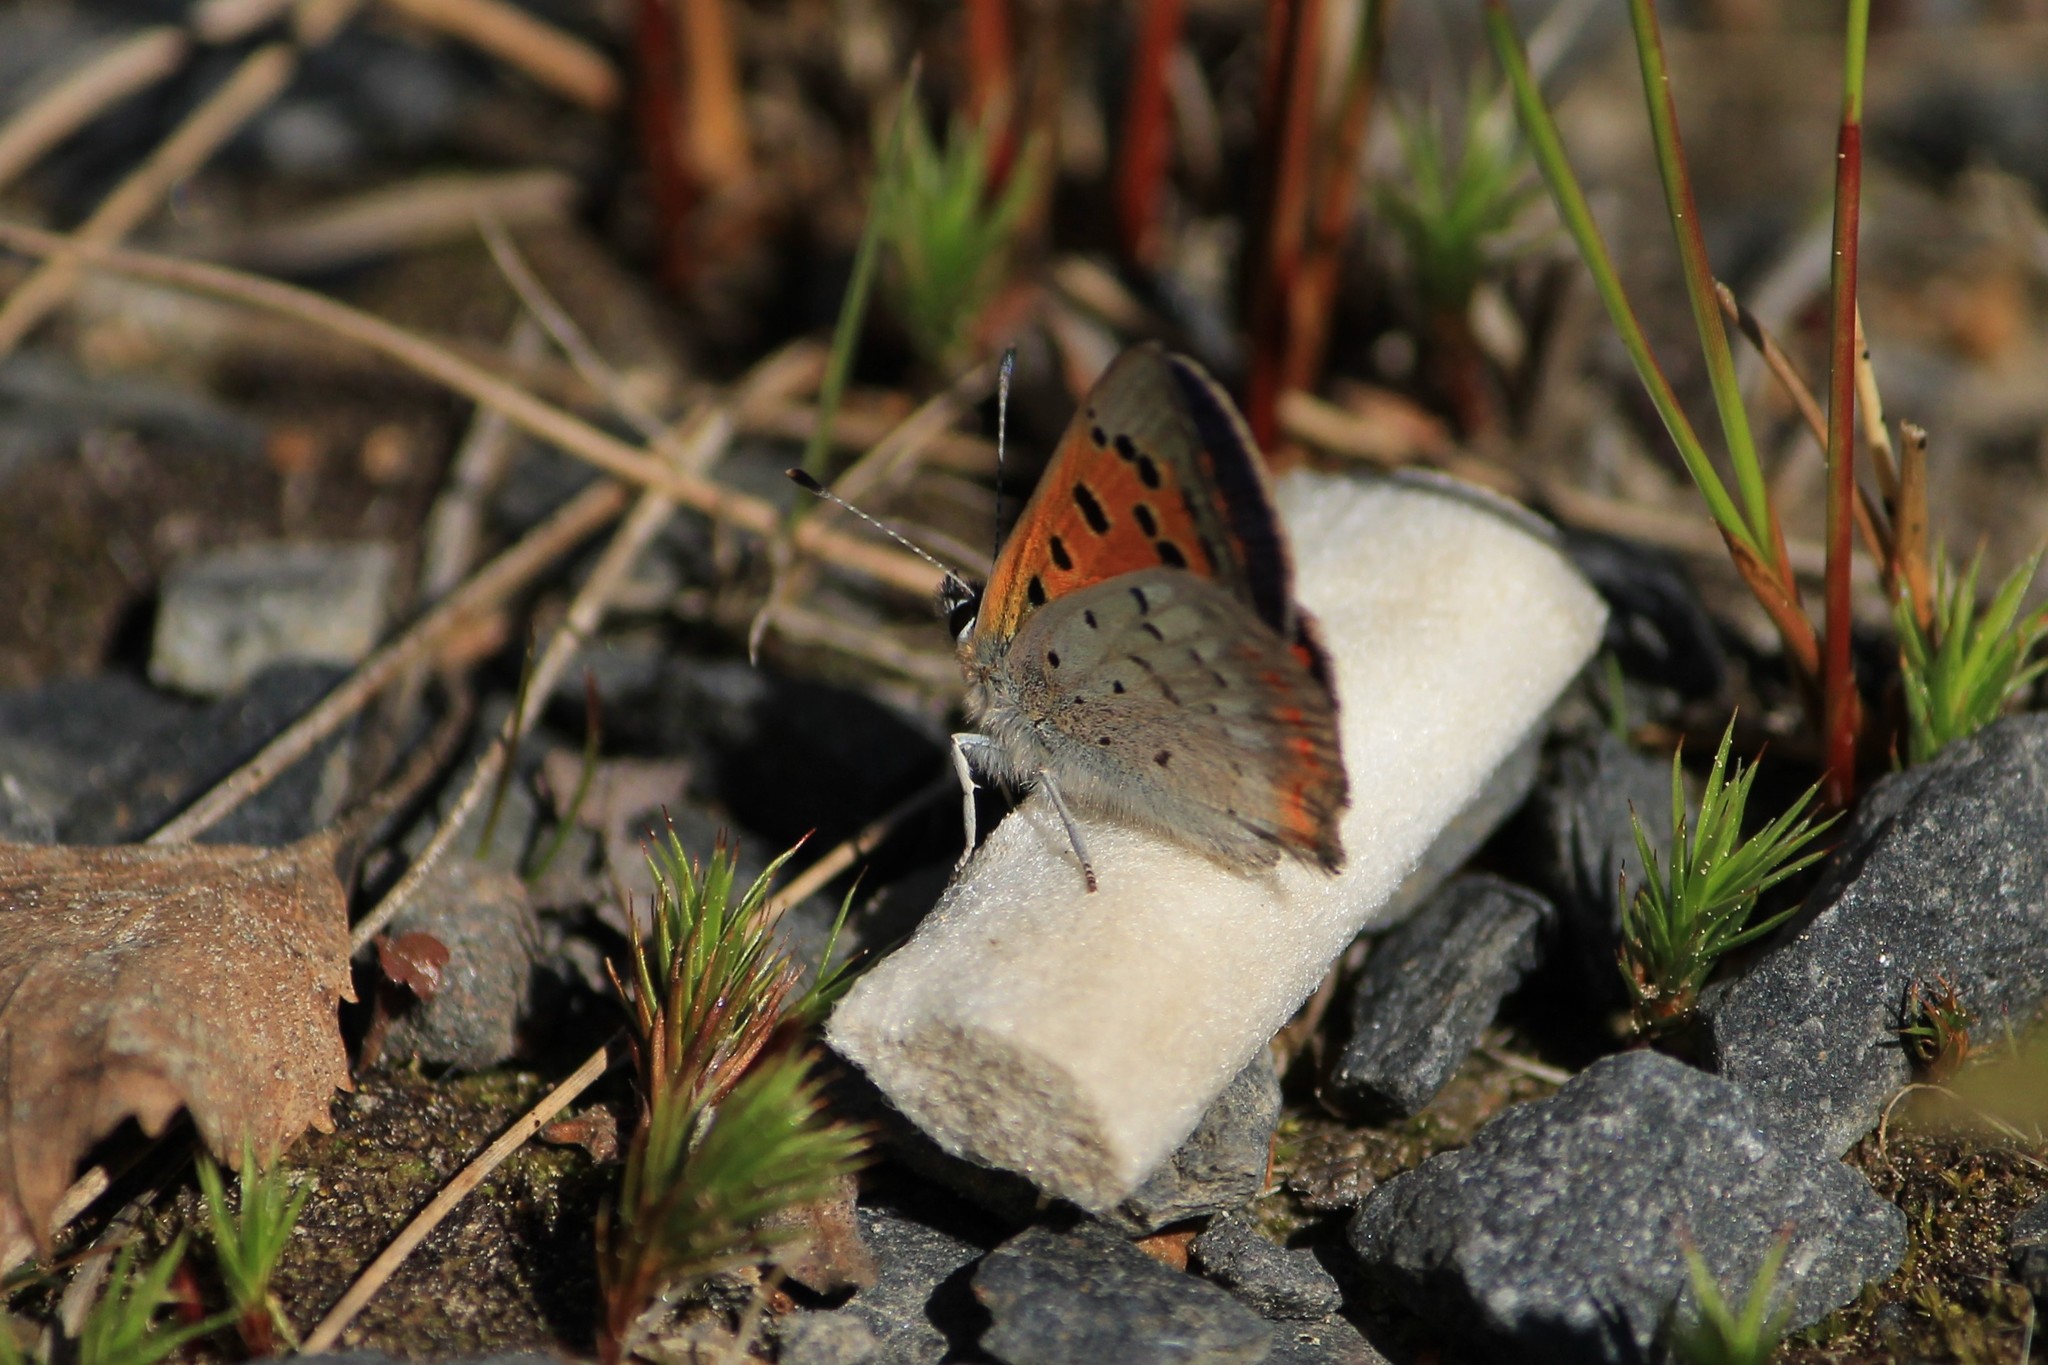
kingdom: Animalia
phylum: Arthropoda
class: Insecta
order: Lepidoptera
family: Lycaenidae
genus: Lycaena
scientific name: Lycaena phlaeas
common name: Small copper
